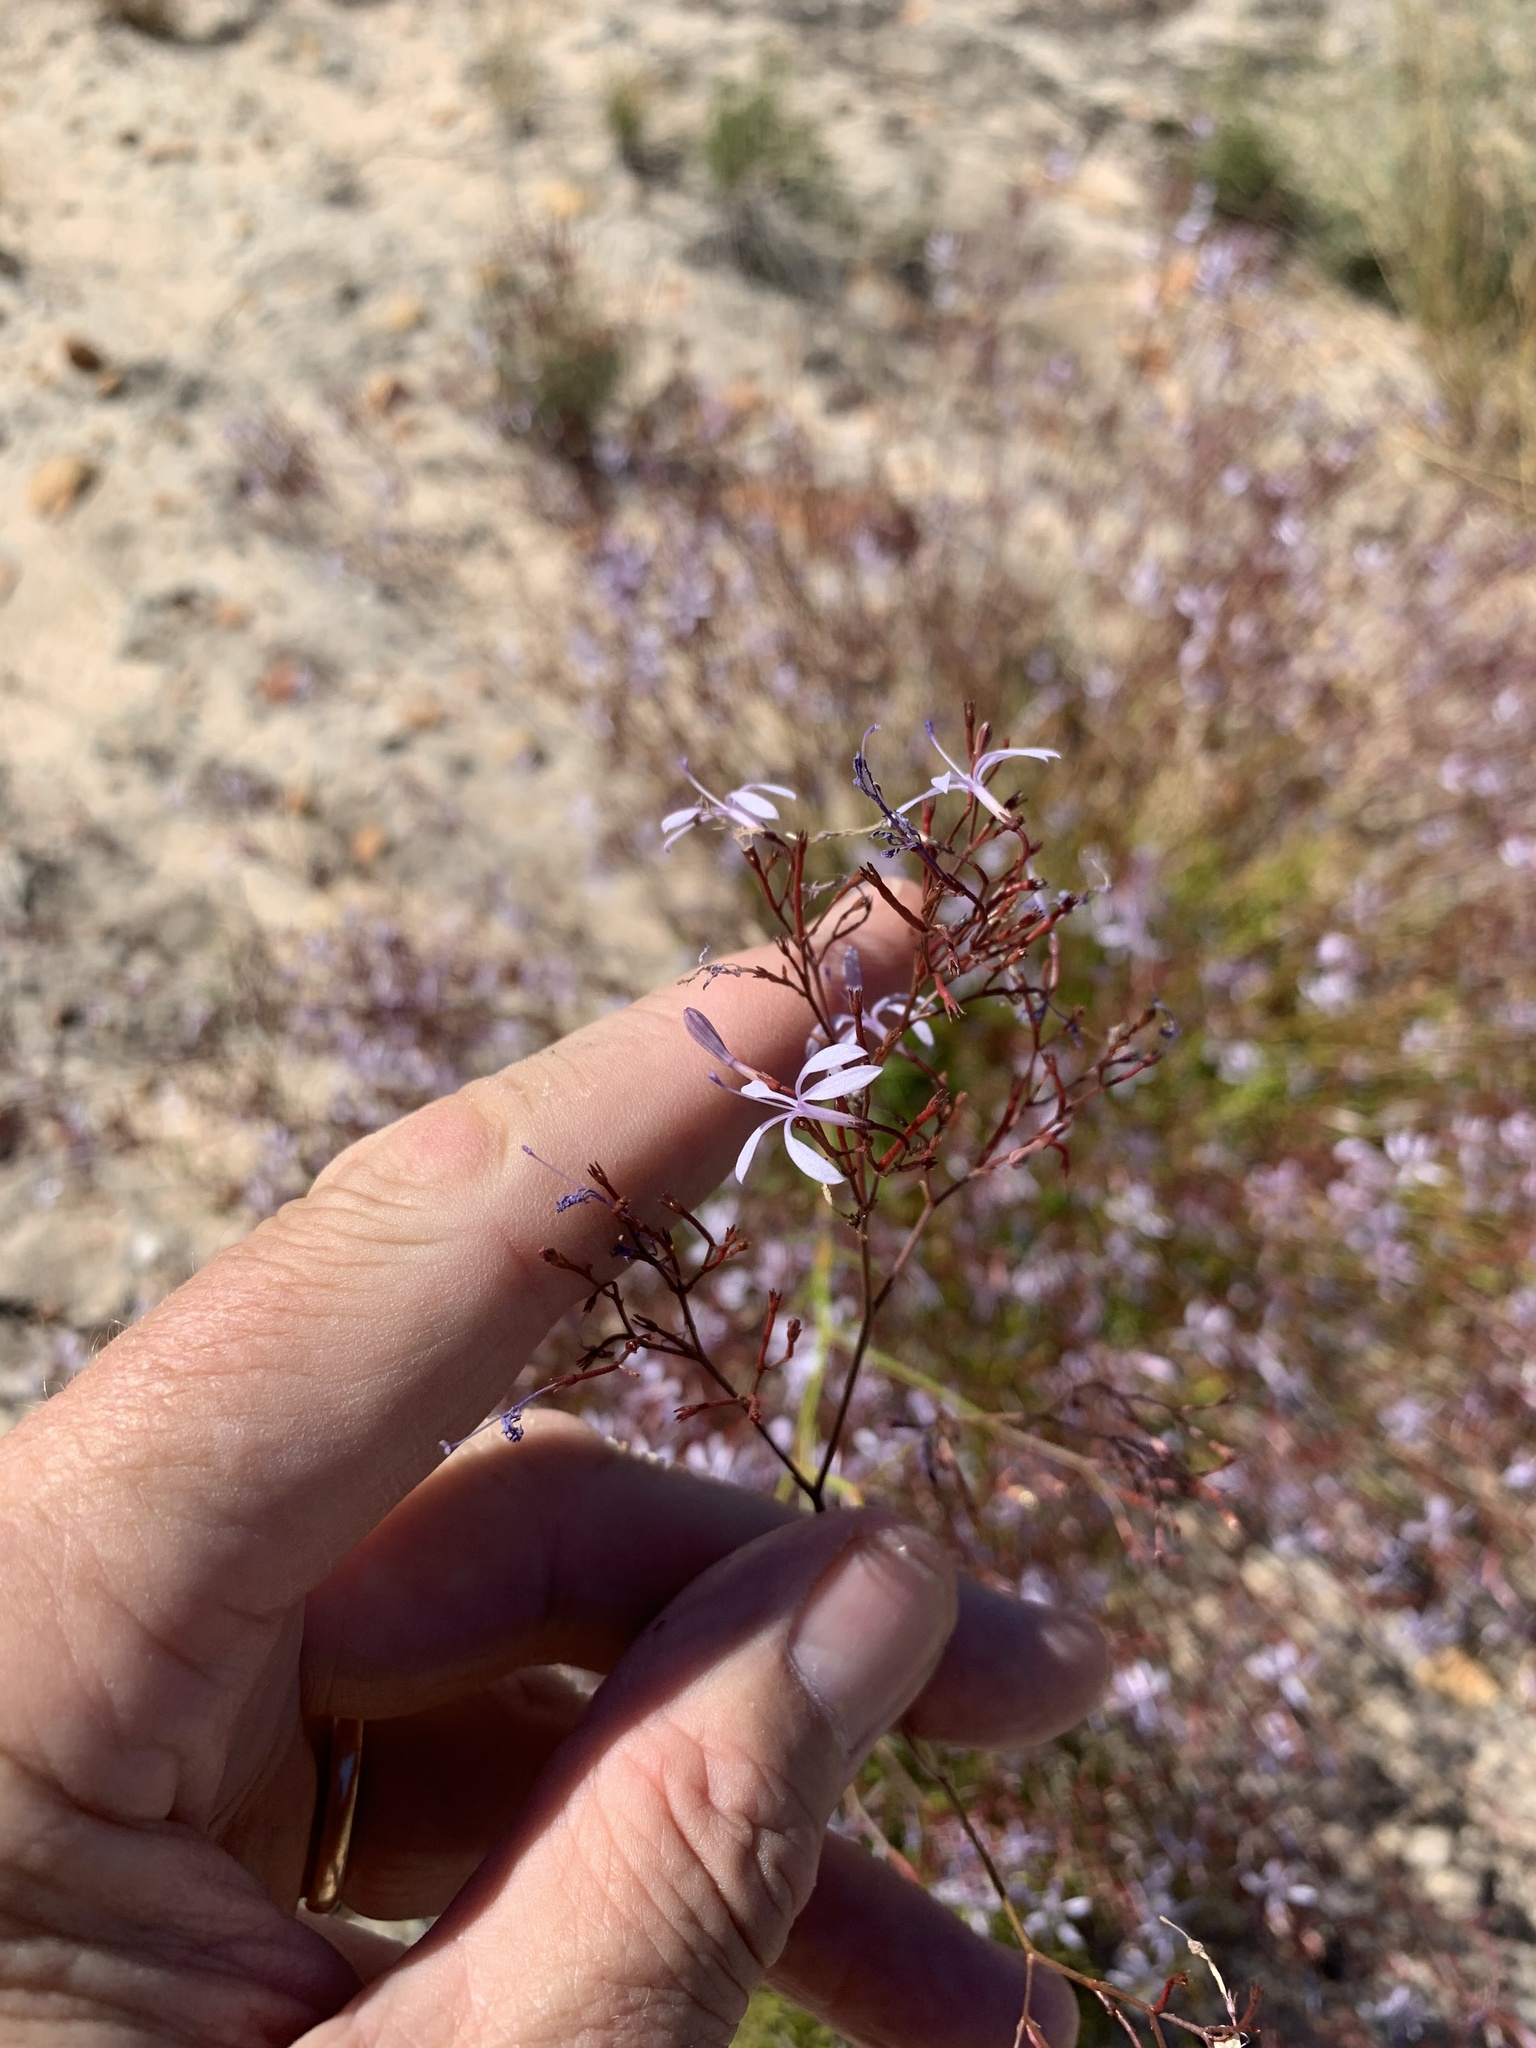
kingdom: Plantae
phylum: Tracheophyta
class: Magnoliopsida
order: Asterales
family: Campanulaceae
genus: Prismatocarpus
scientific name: Prismatocarpus diffusus
